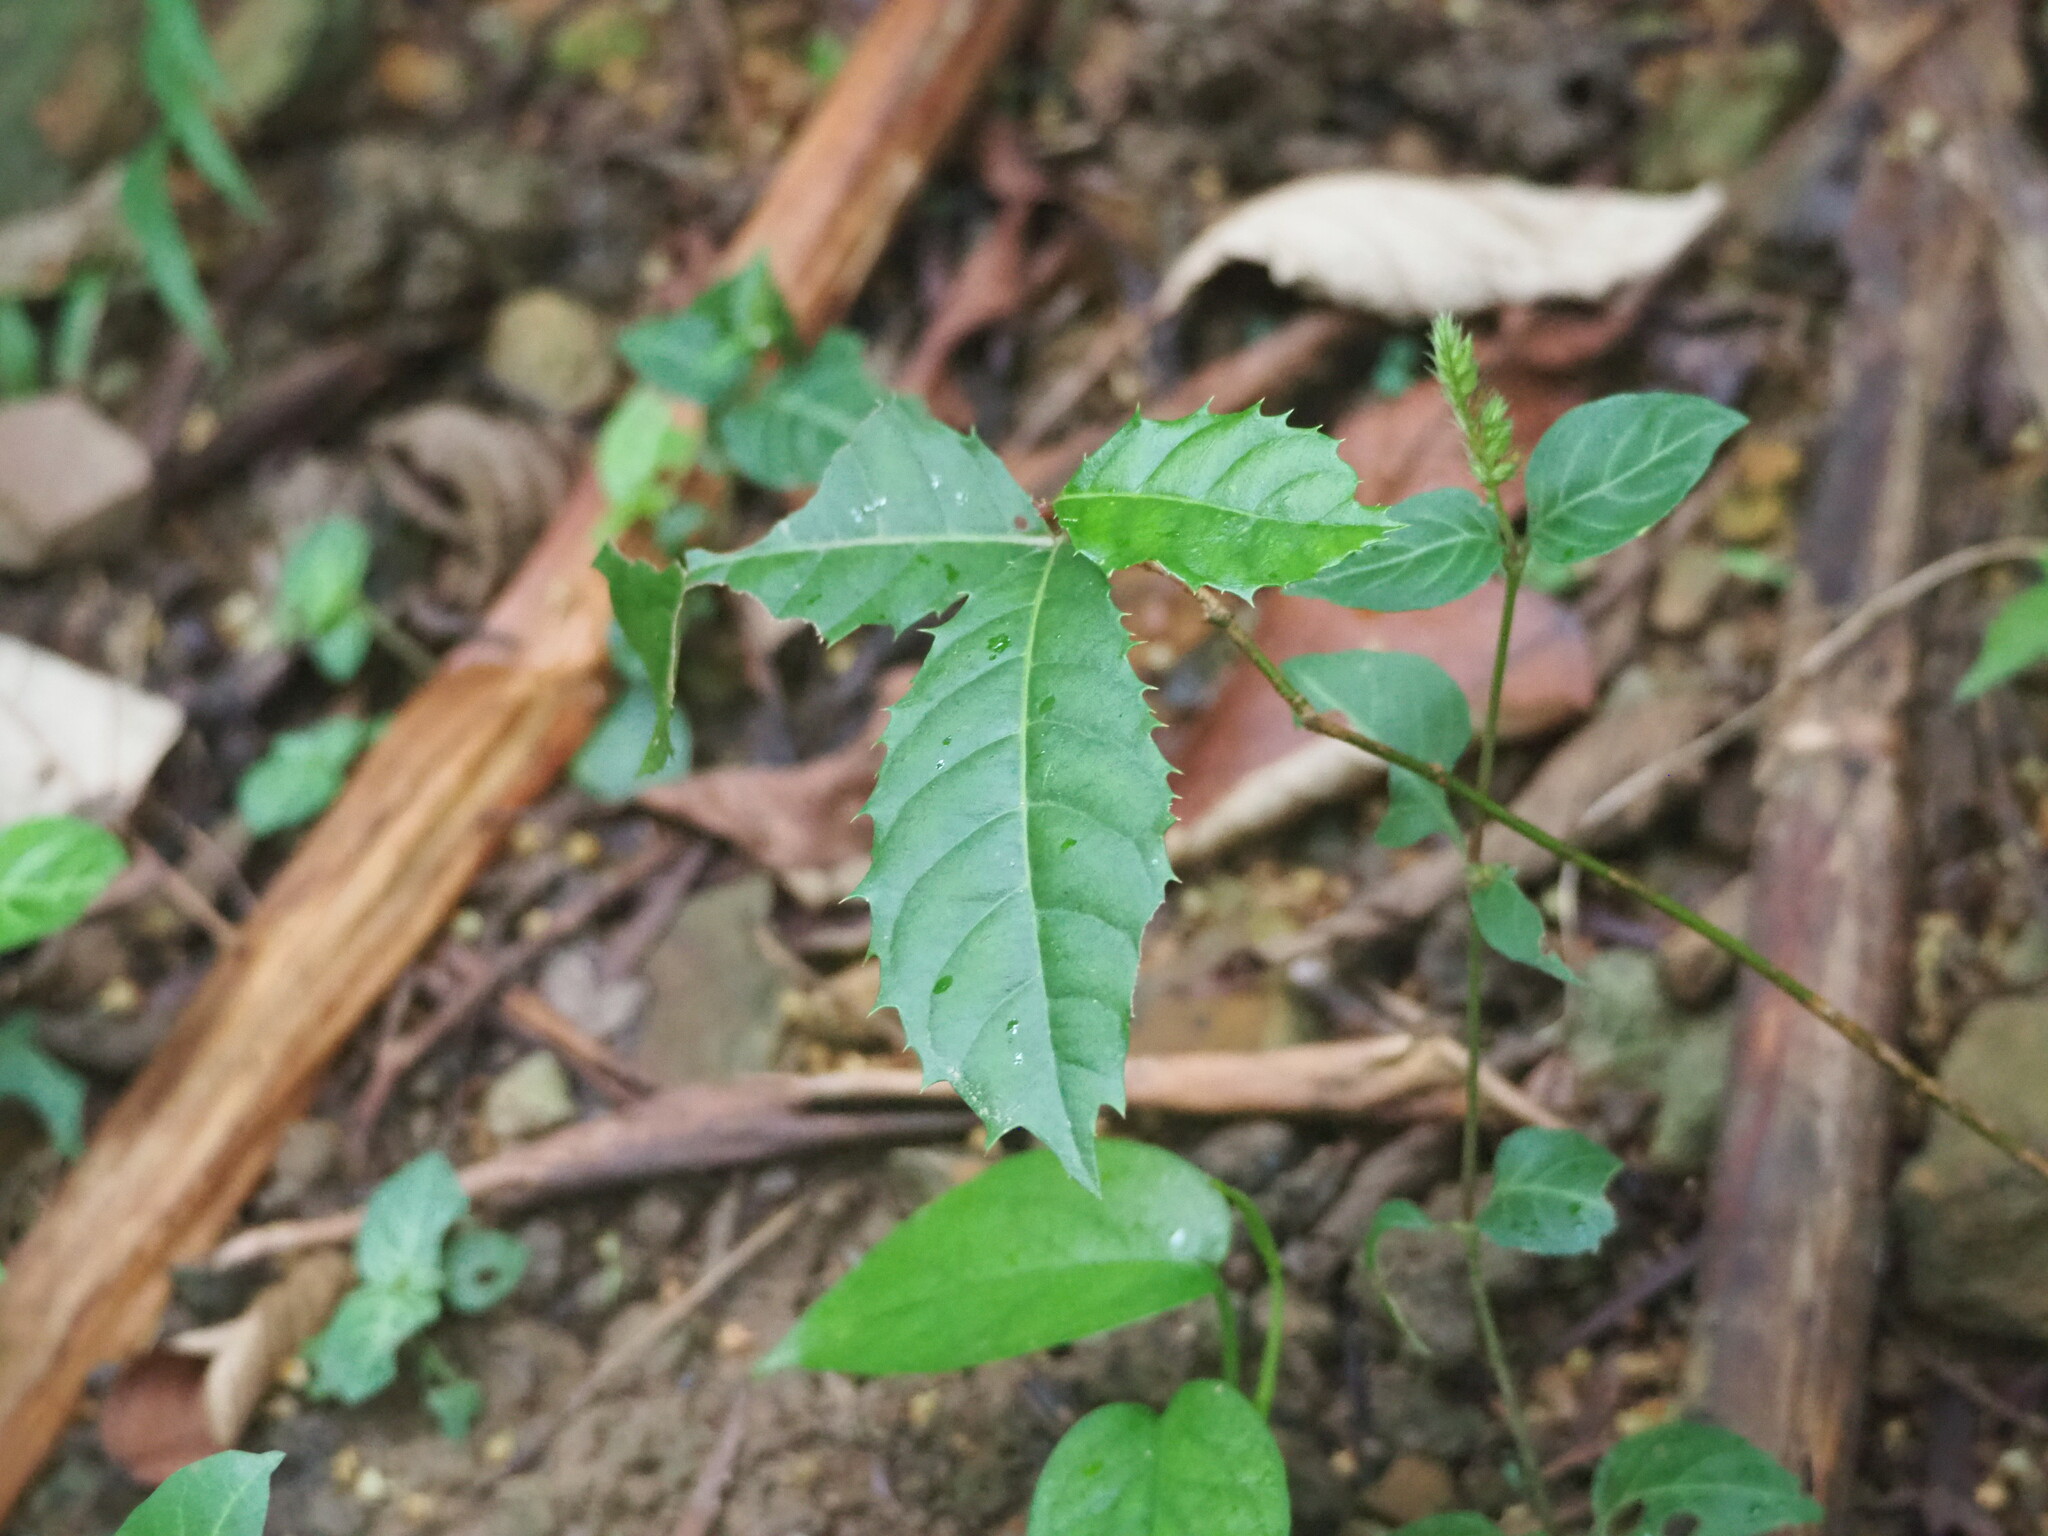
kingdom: Plantae
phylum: Tracheophyta
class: Magnoliopsida
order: Saxifragales
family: Iteaceae
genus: Itea
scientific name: Itea oldhamii
